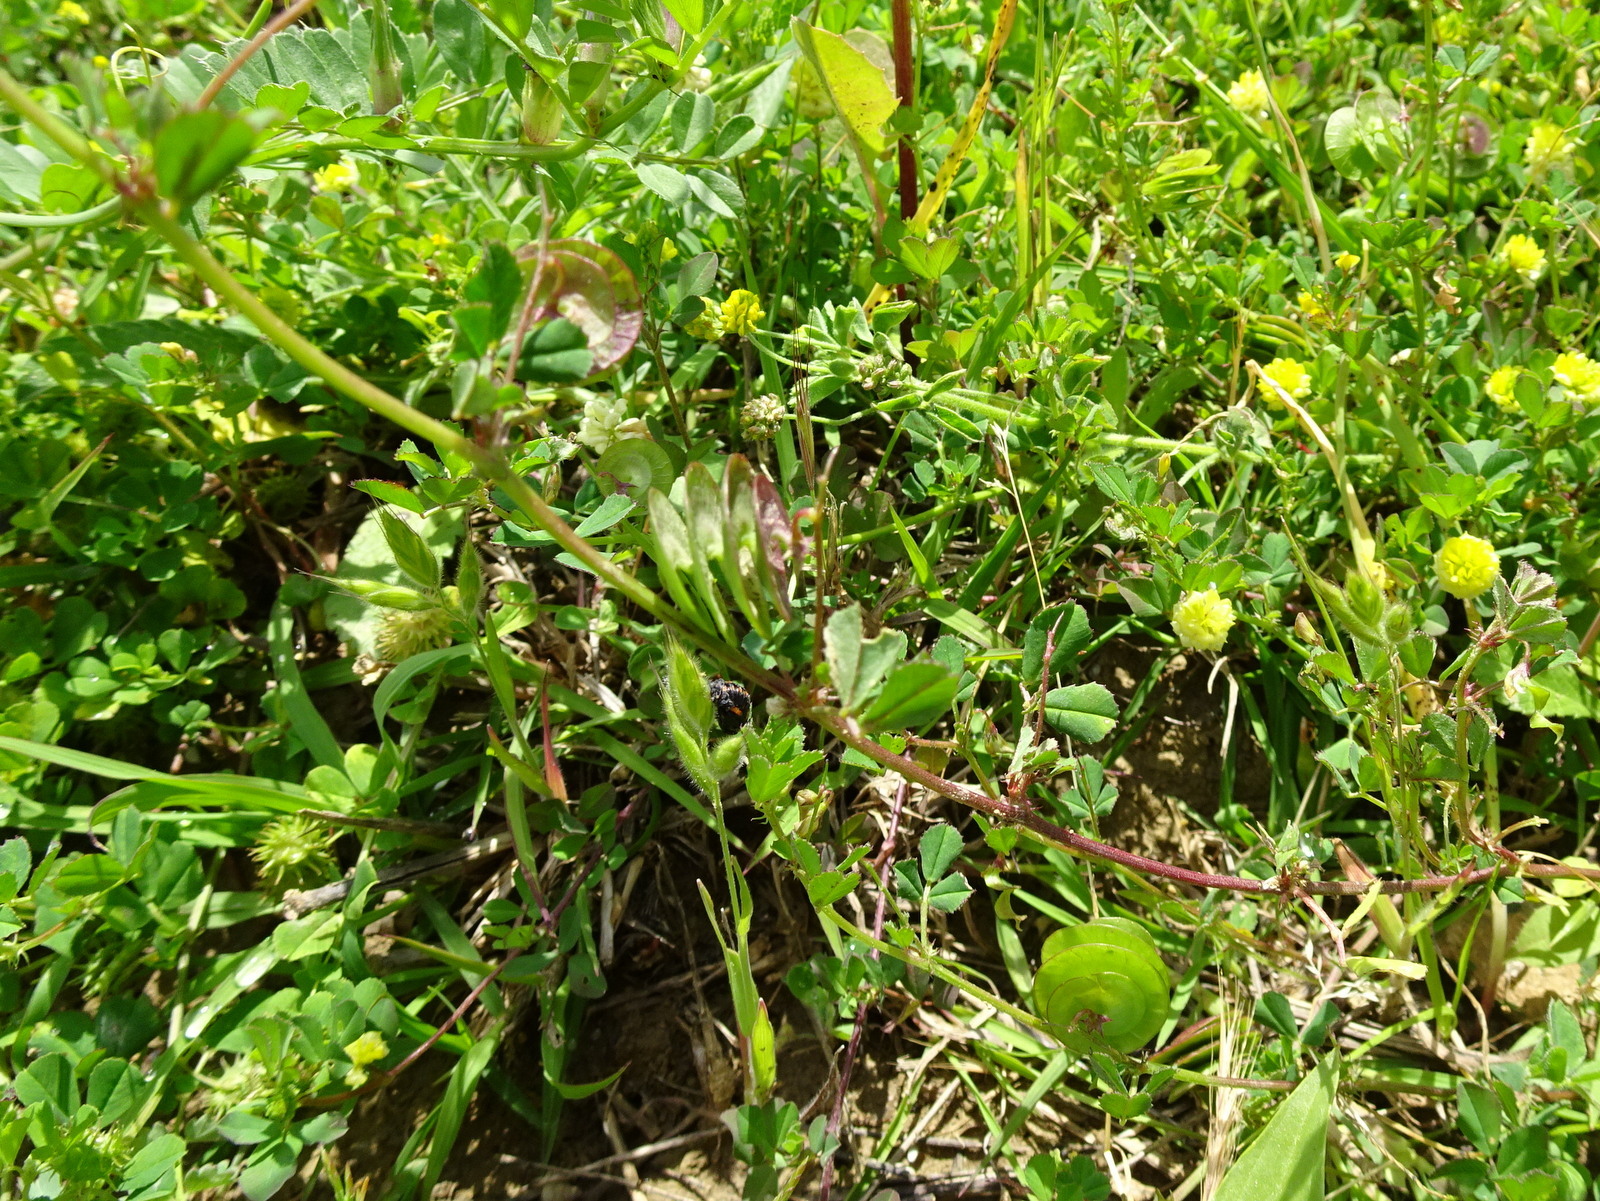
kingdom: Plantae
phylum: Tracheophyta
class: Magnoliopsida
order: Fabales
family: Fabaceae
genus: Medicago
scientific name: Medicago orbicularis
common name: Button medick
